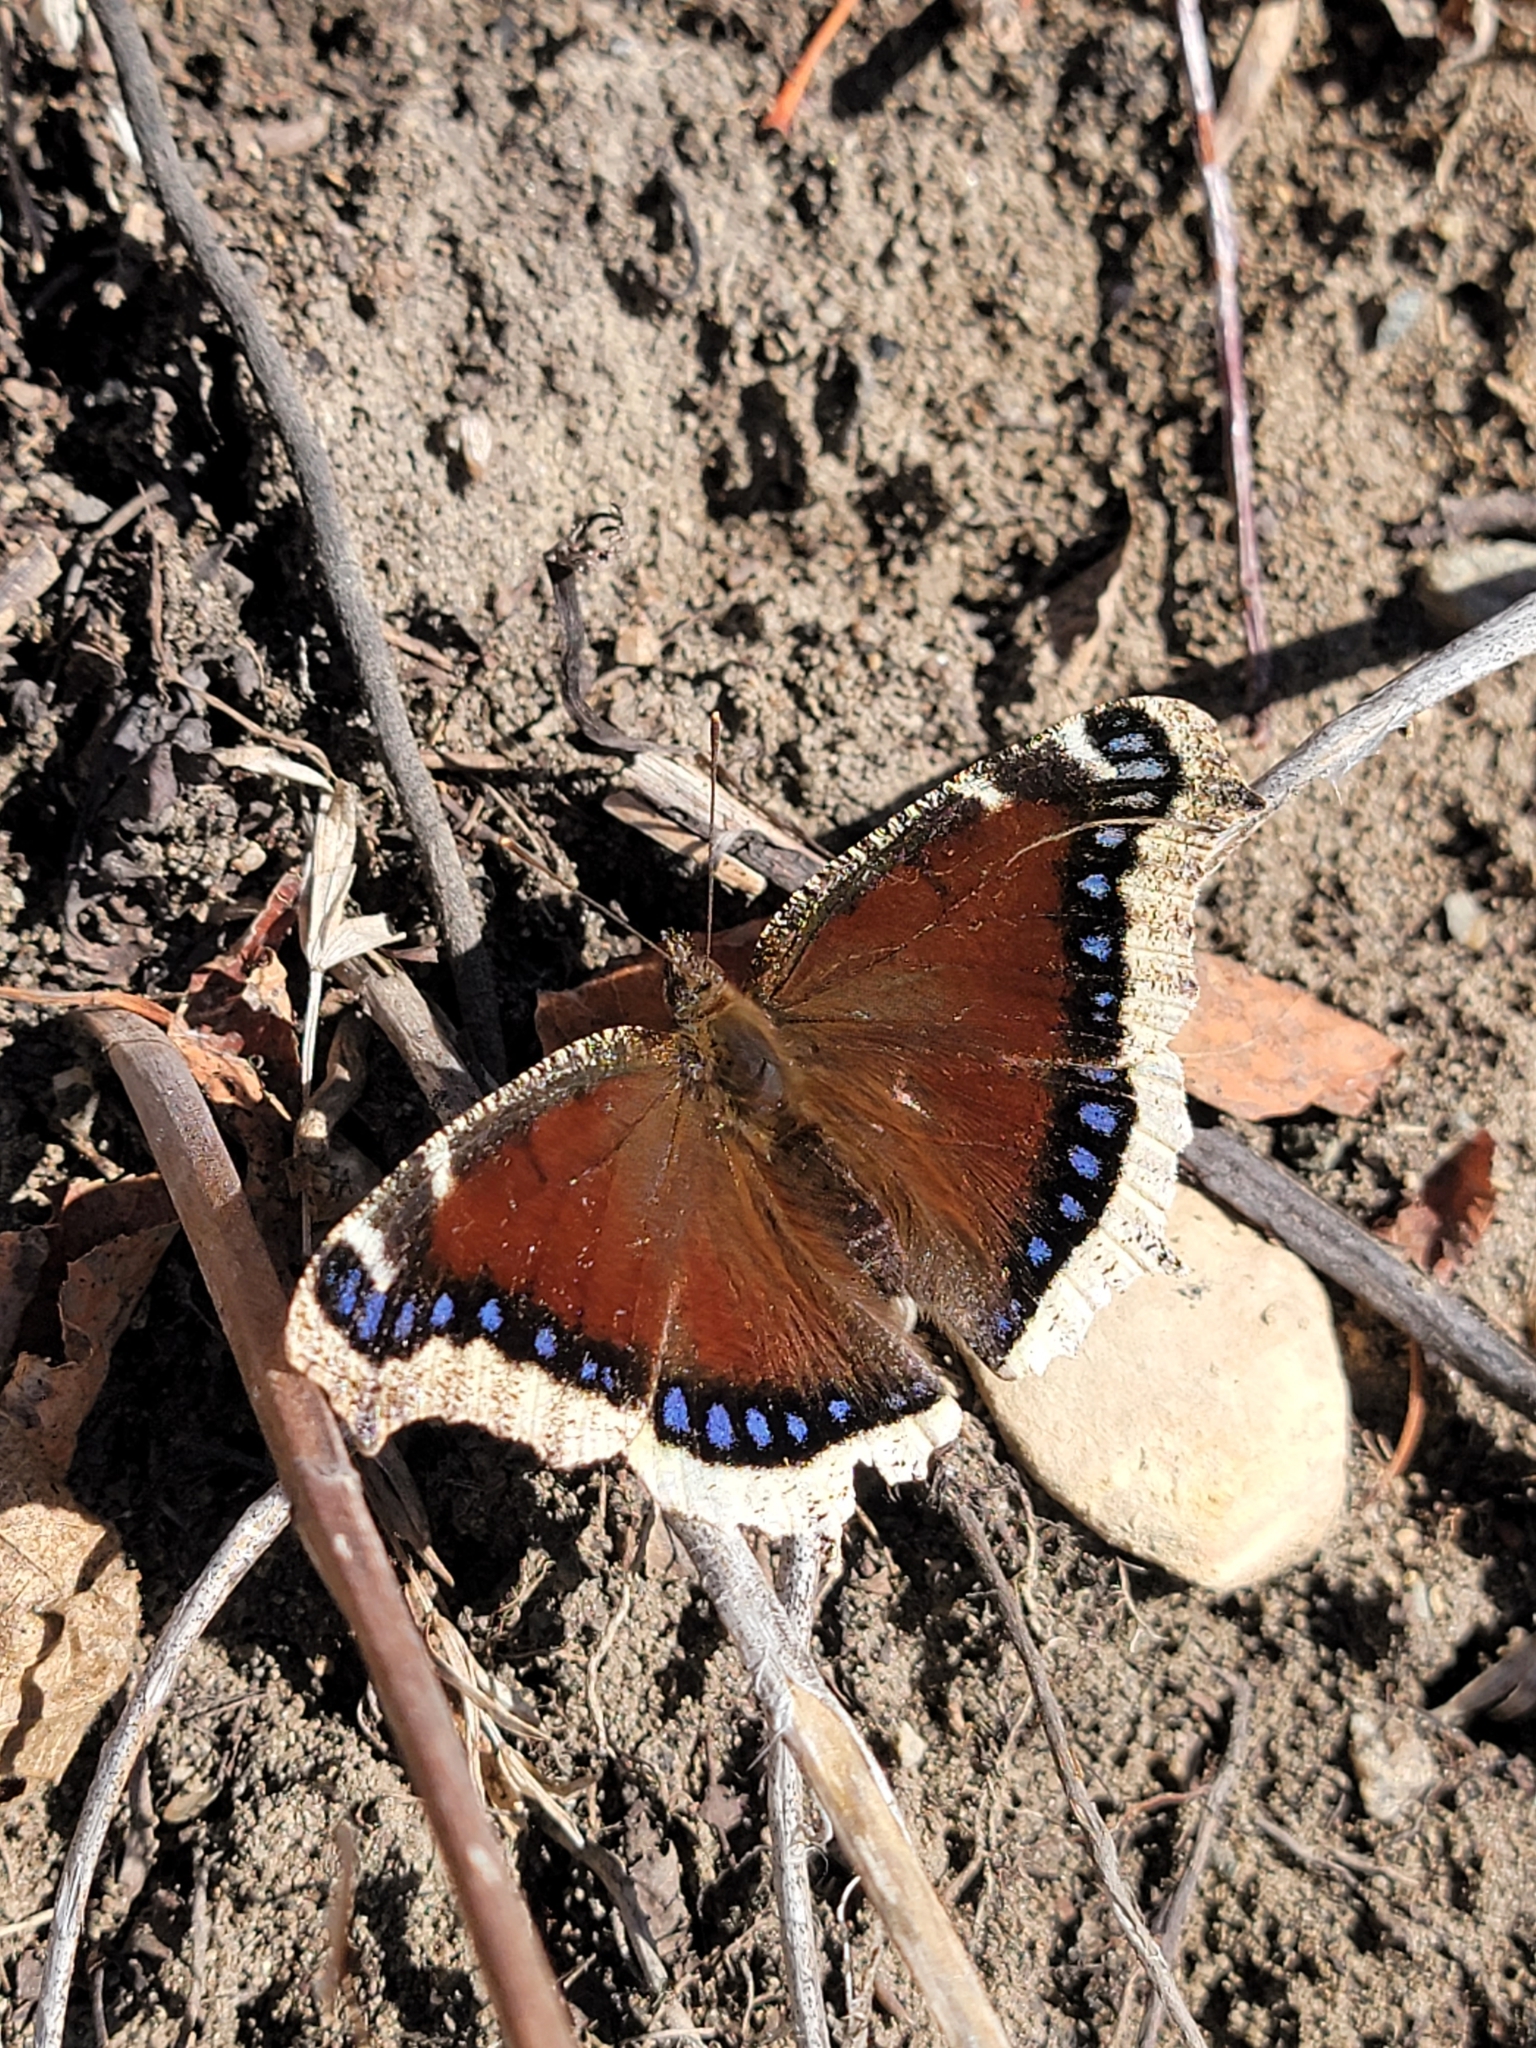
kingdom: Animalia
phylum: Arthropoda
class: Insecta
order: Lepidoptera
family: Nymphalidae
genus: Nymphalis
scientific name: Nymphalis antiopa
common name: Camberwell beauty
